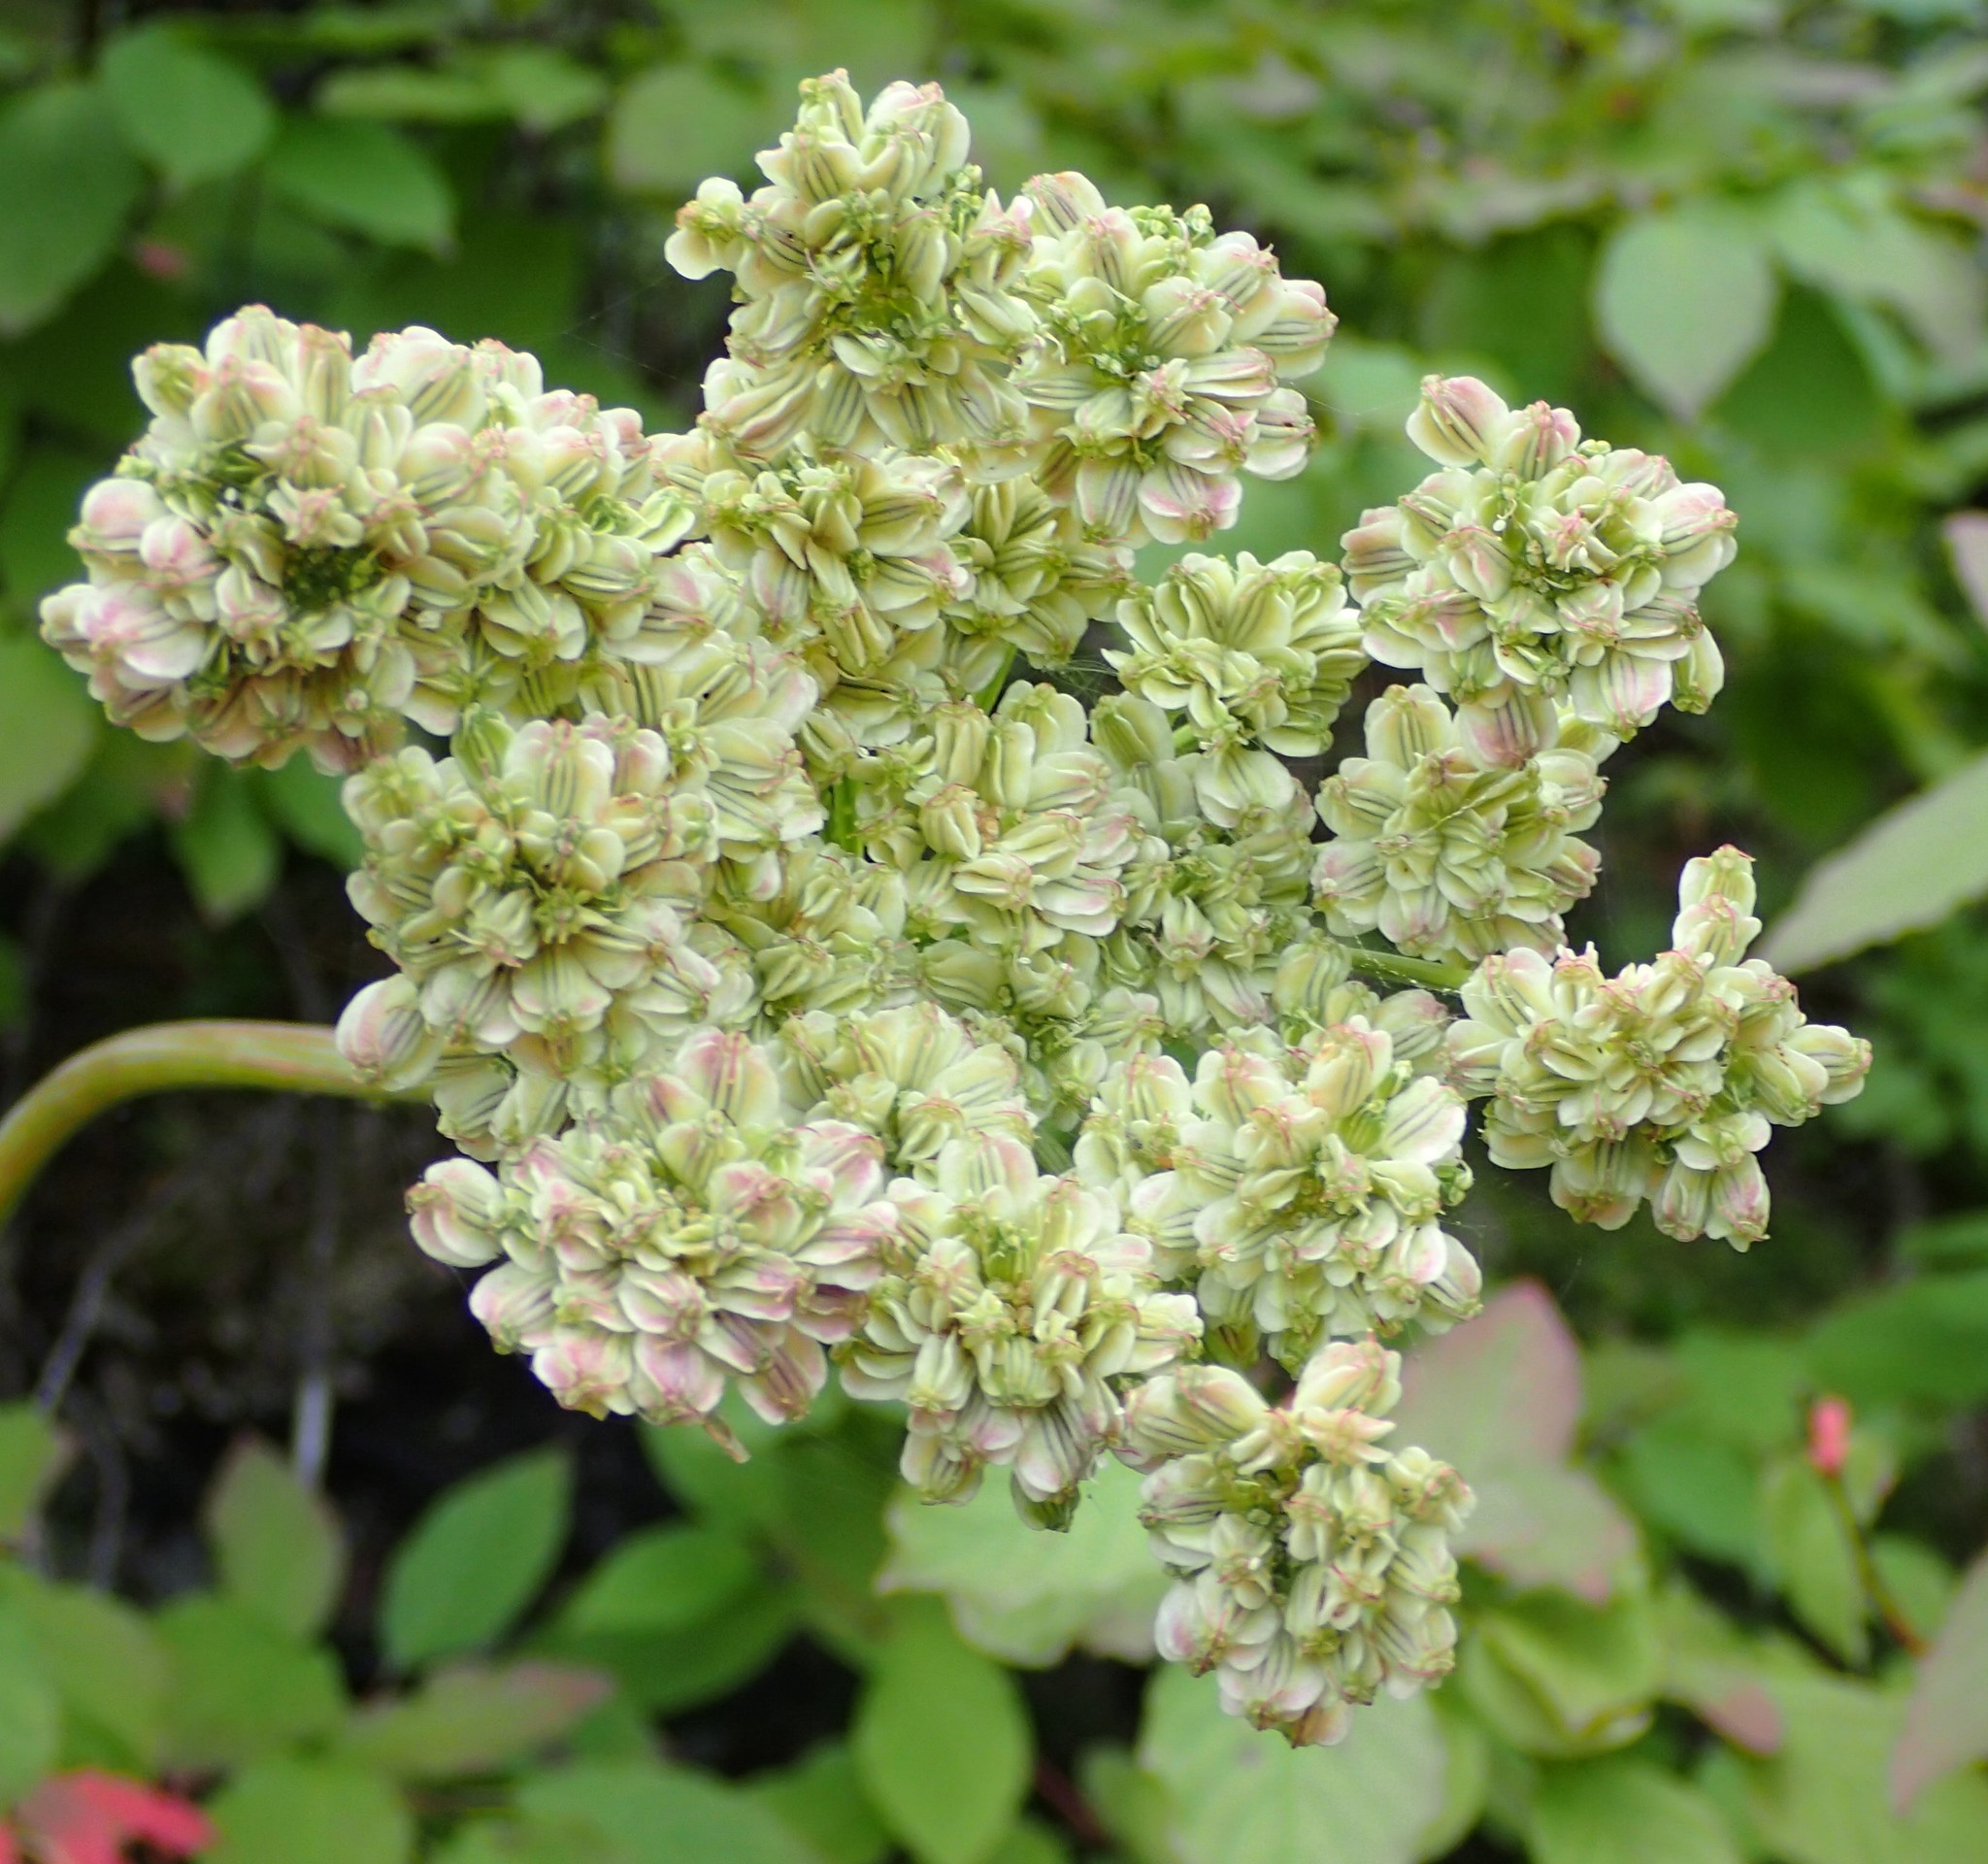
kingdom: Plantae
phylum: Tracheophyta
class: Magnoliopsida
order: Apiales
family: Apiaceae
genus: Angelica
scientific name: Angelica arguta
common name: Lyall's angelica
